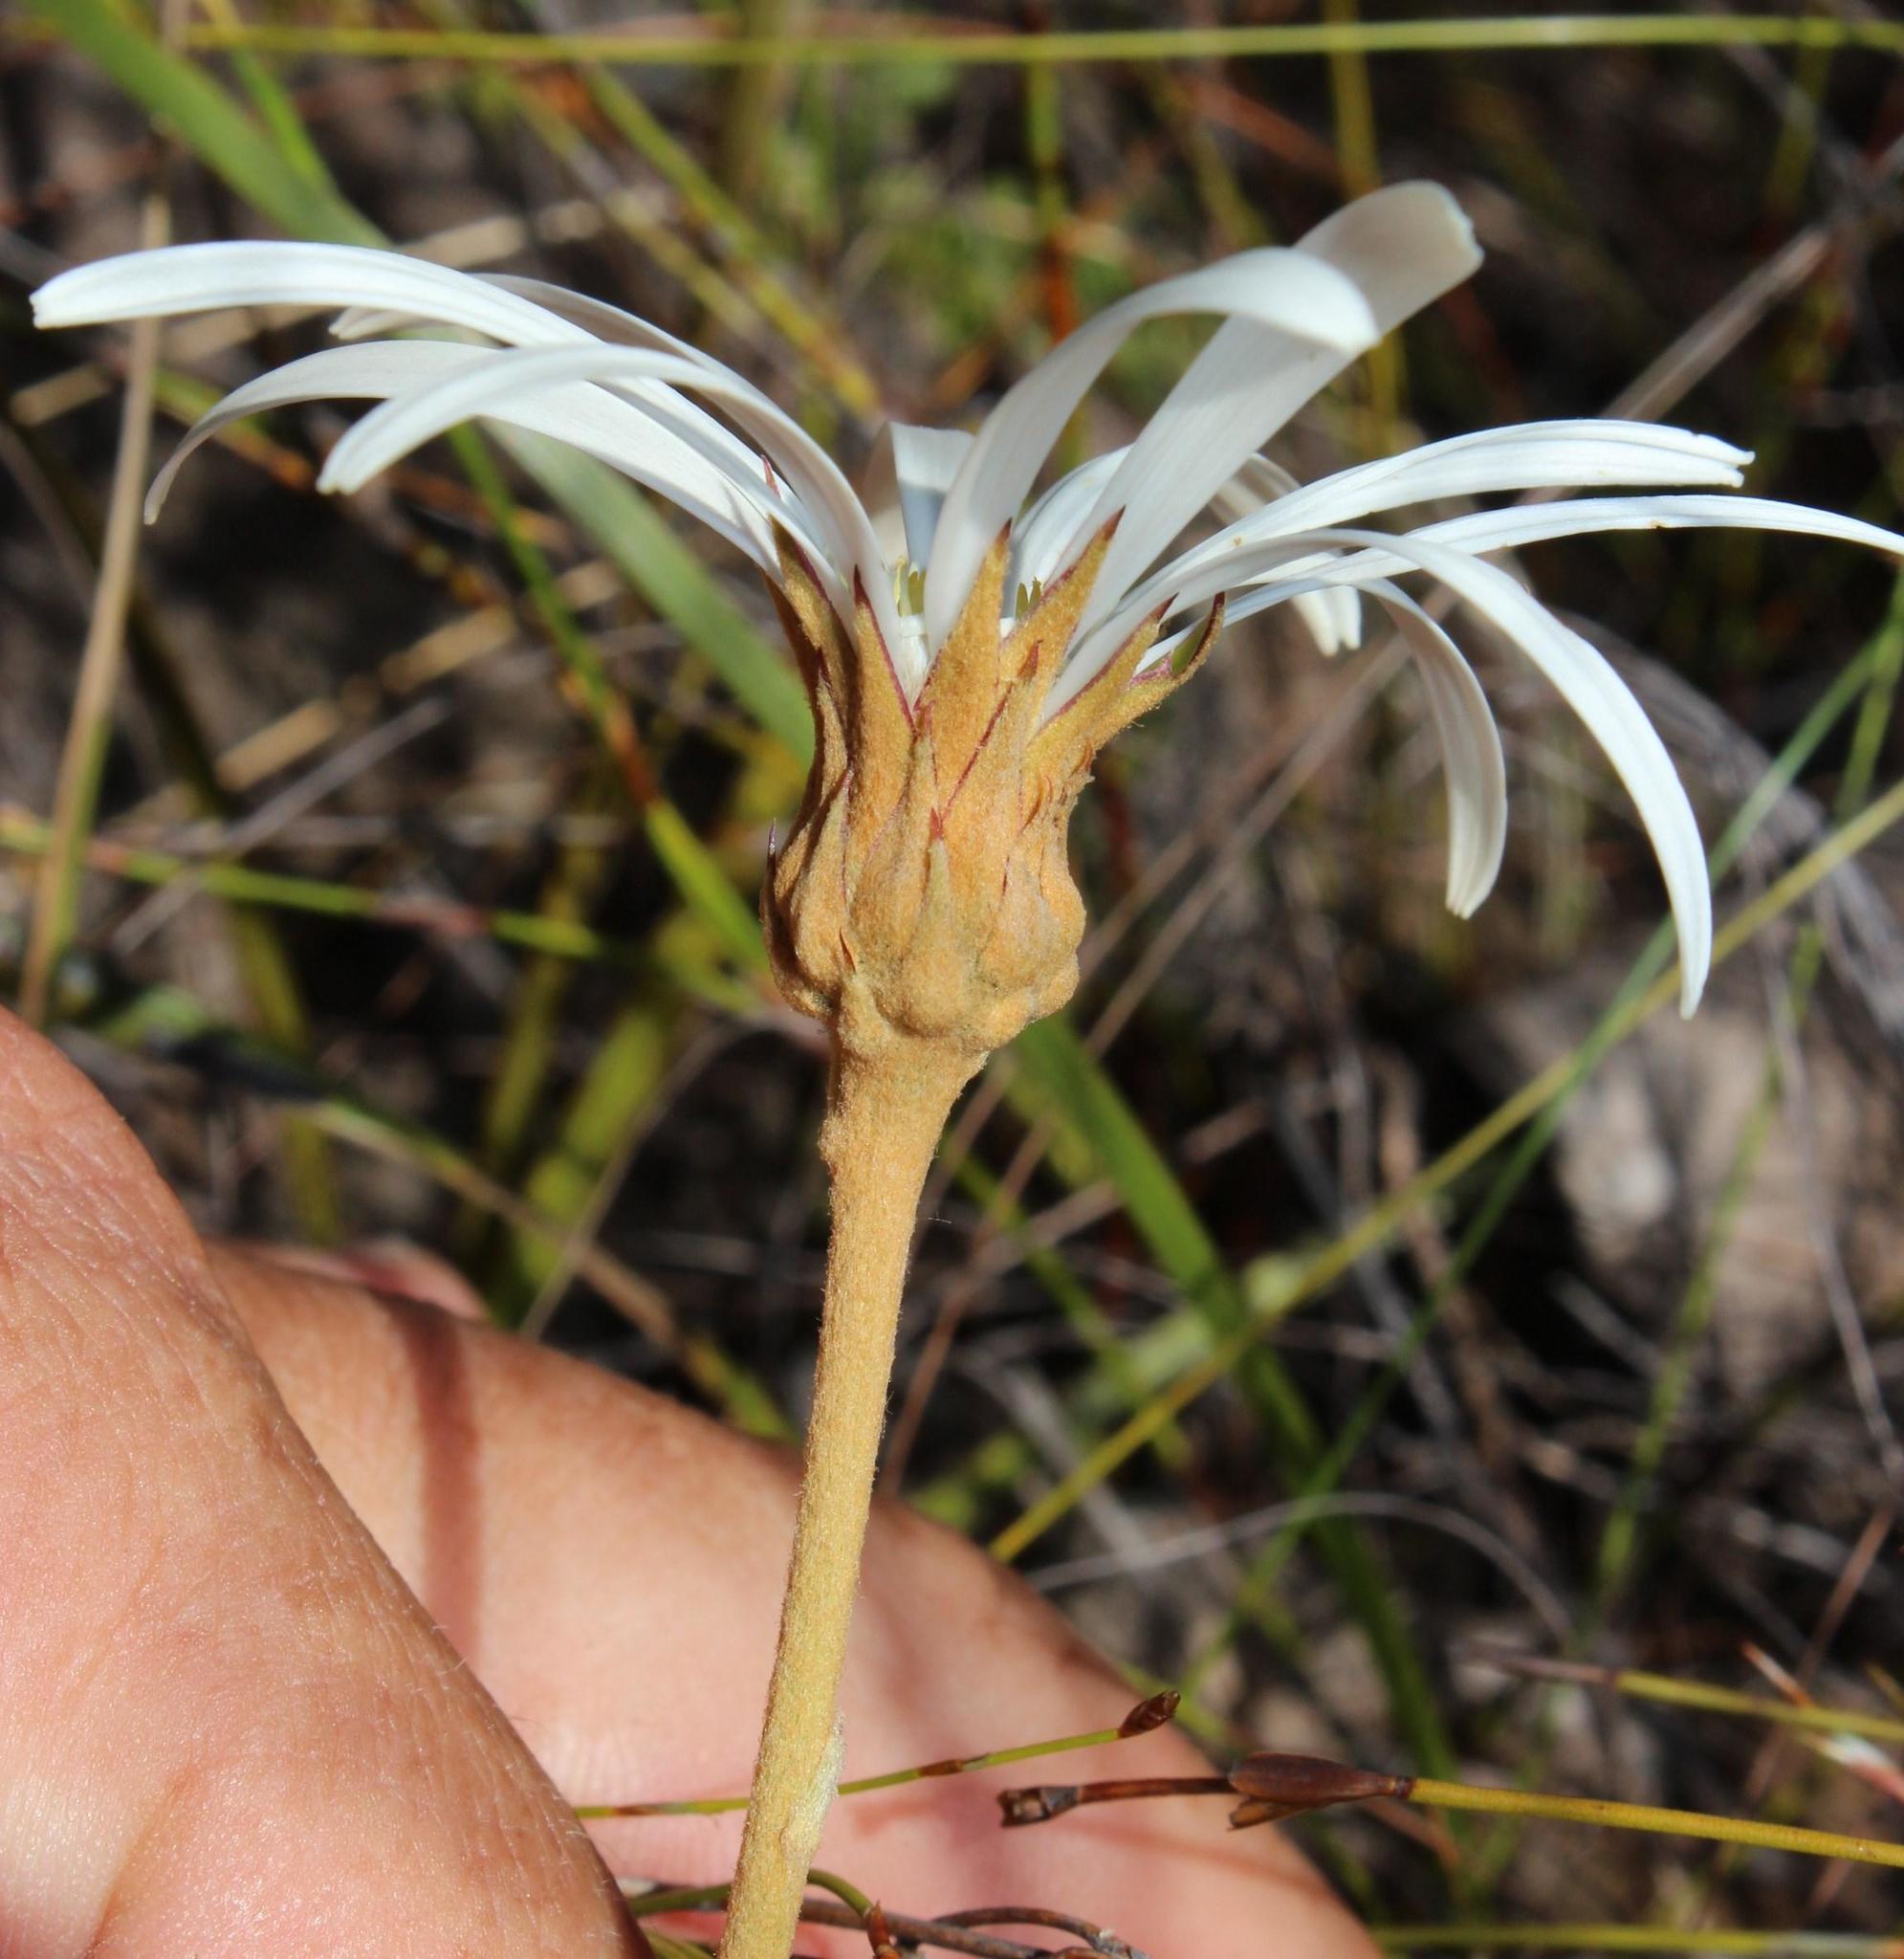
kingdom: Plantae
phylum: Tracheophyta
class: Magnoliopsida
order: Asterales
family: Asteraceae
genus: Gerbera
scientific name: Gerbera tomentosa
